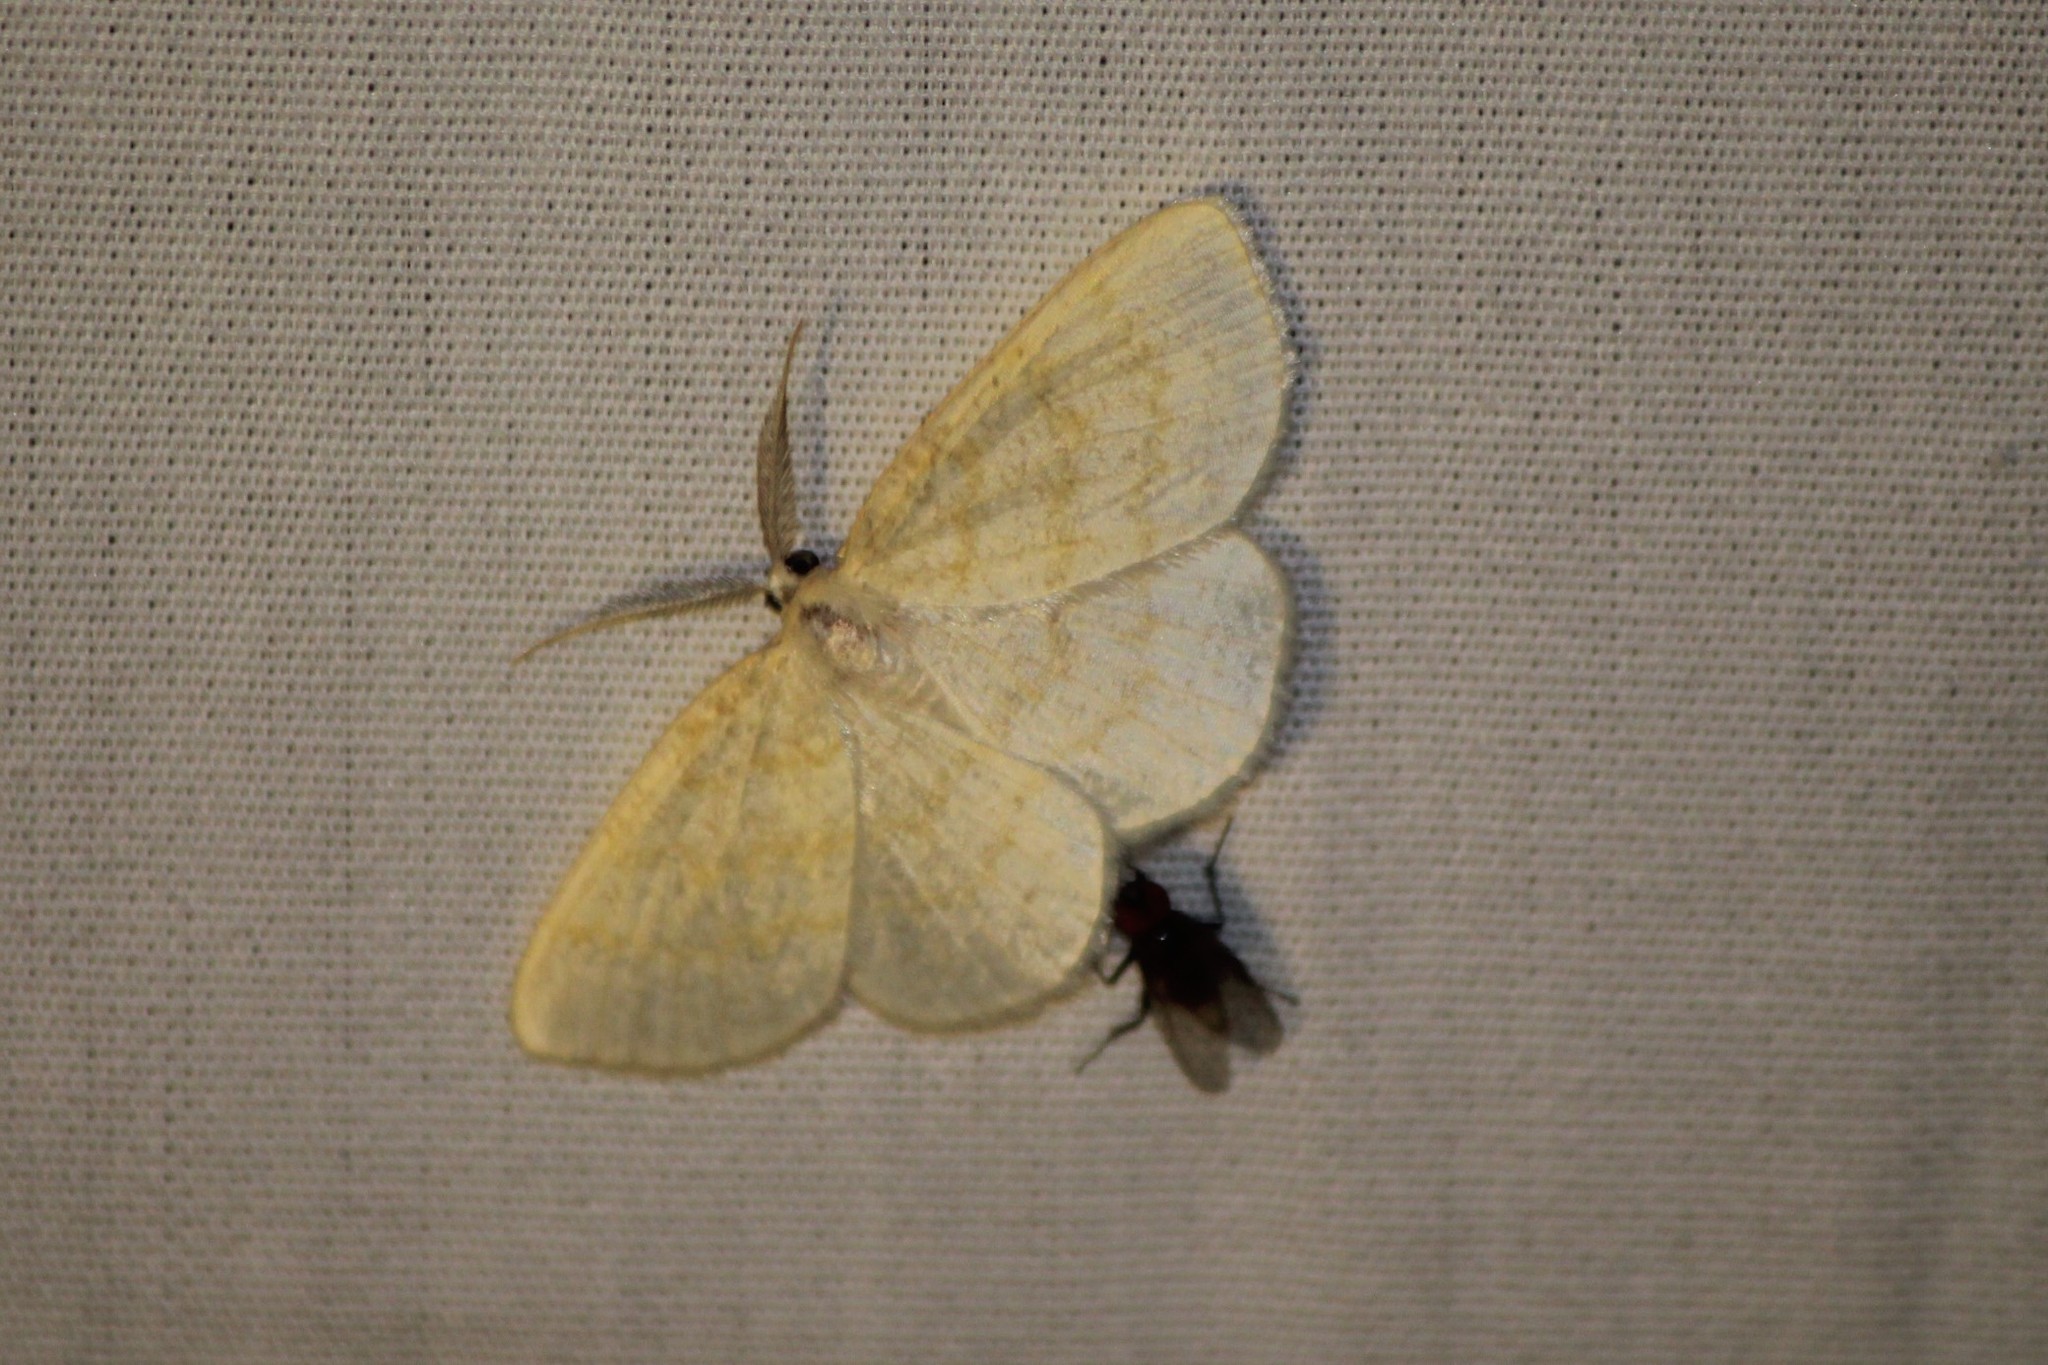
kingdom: Animalia
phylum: Arthropoda
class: Insecta
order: Lepidoptera
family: Geometridae
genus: Cabera
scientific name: Cabera erythemaria
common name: Yellow-dusted cream moth
